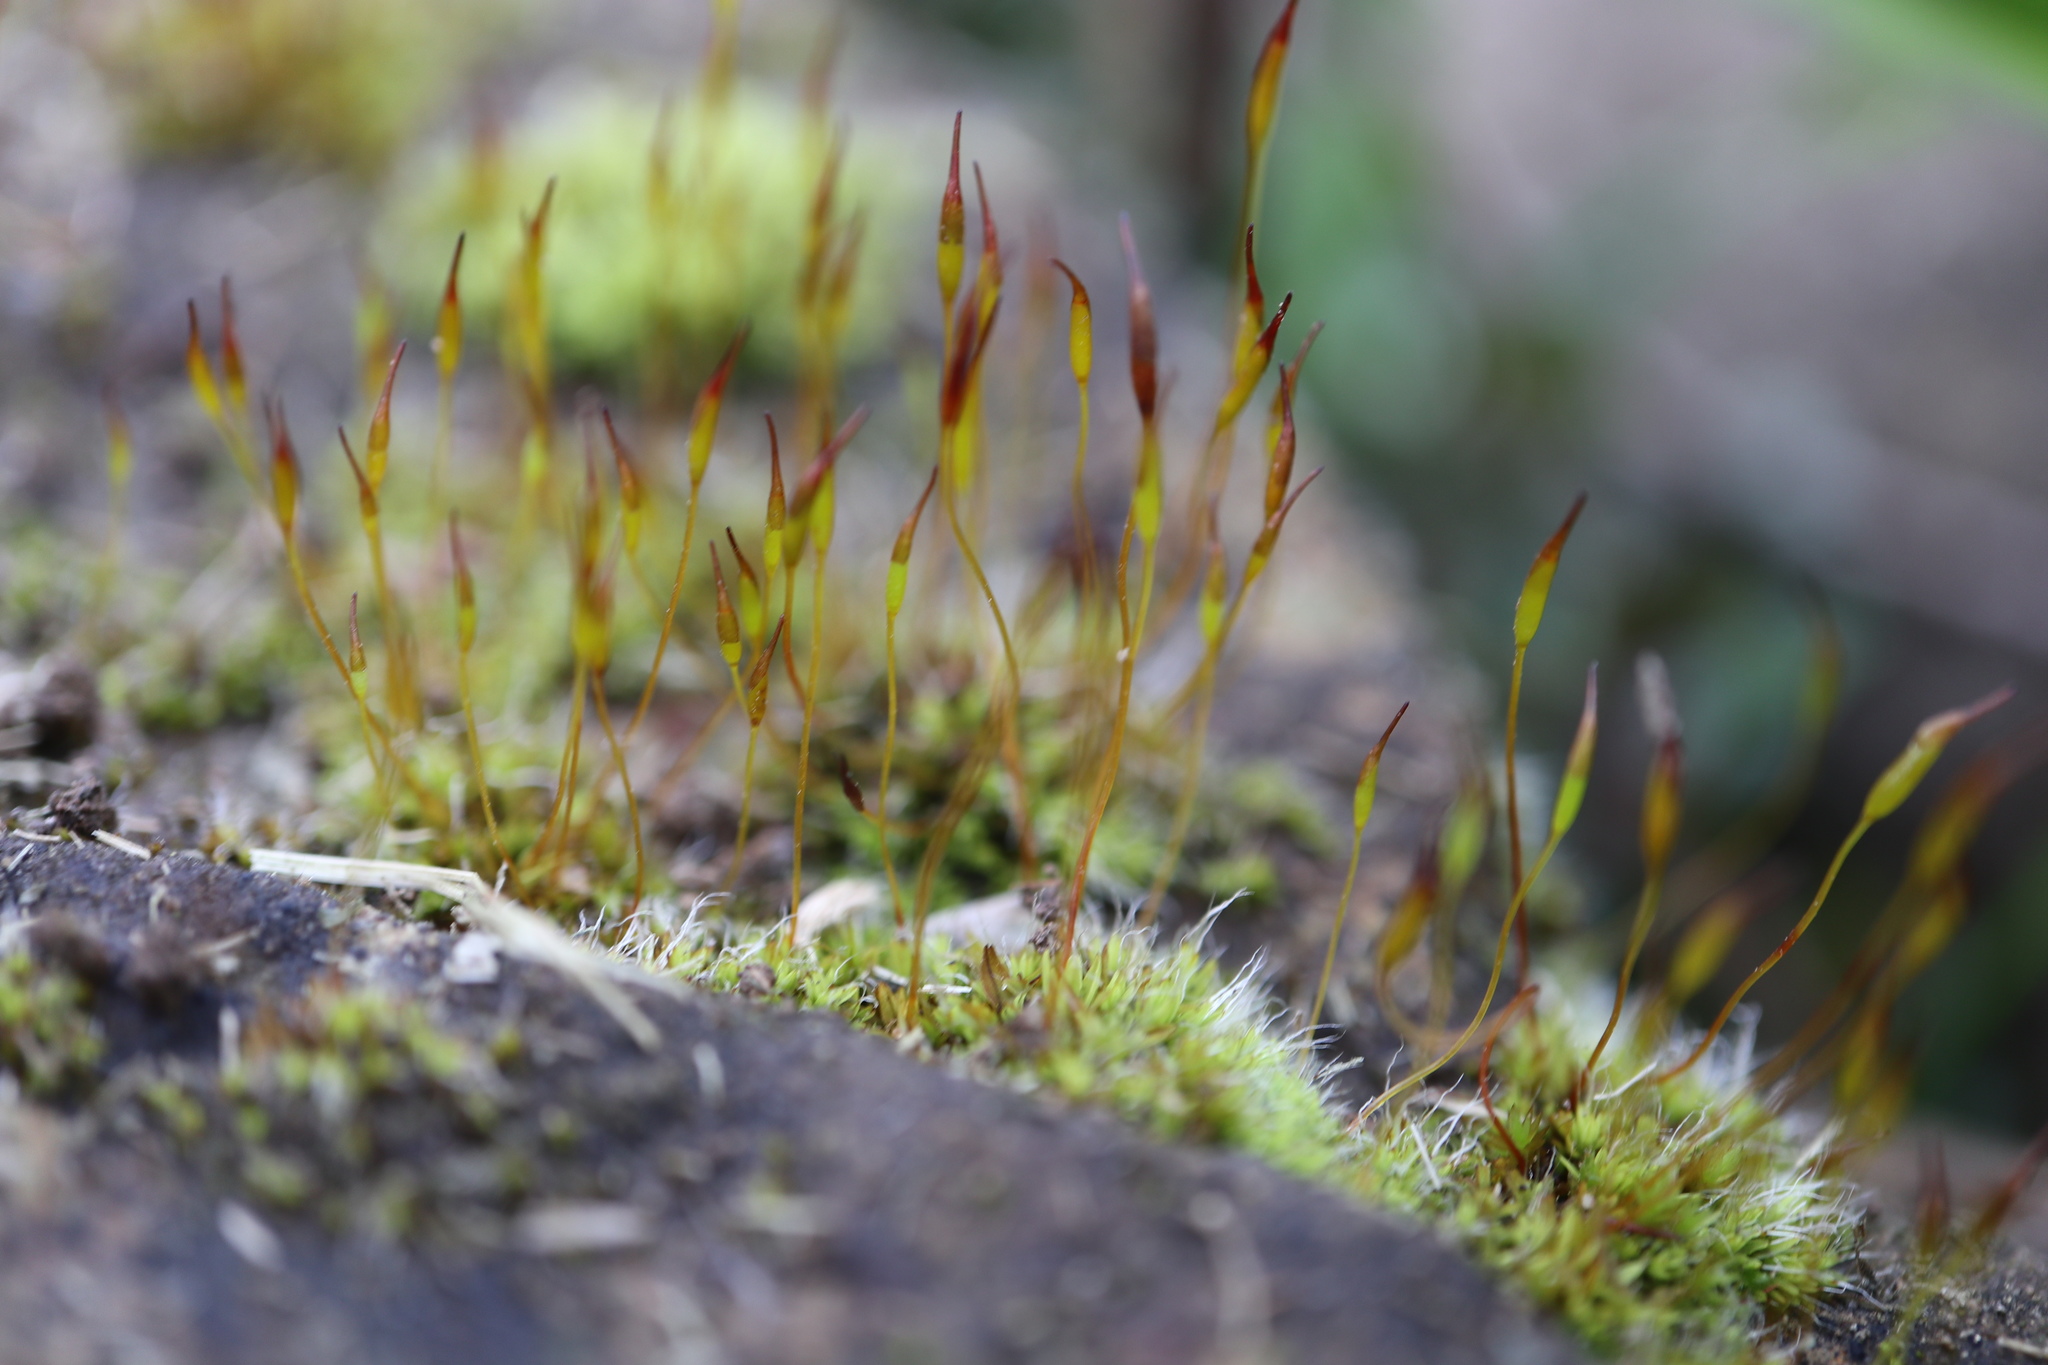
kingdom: Plantae
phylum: Bryophyta
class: Bryopsida
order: Pottiales
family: Pottiaceae
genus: Tortula
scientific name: Tortula muralis
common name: Wall screw-moss
